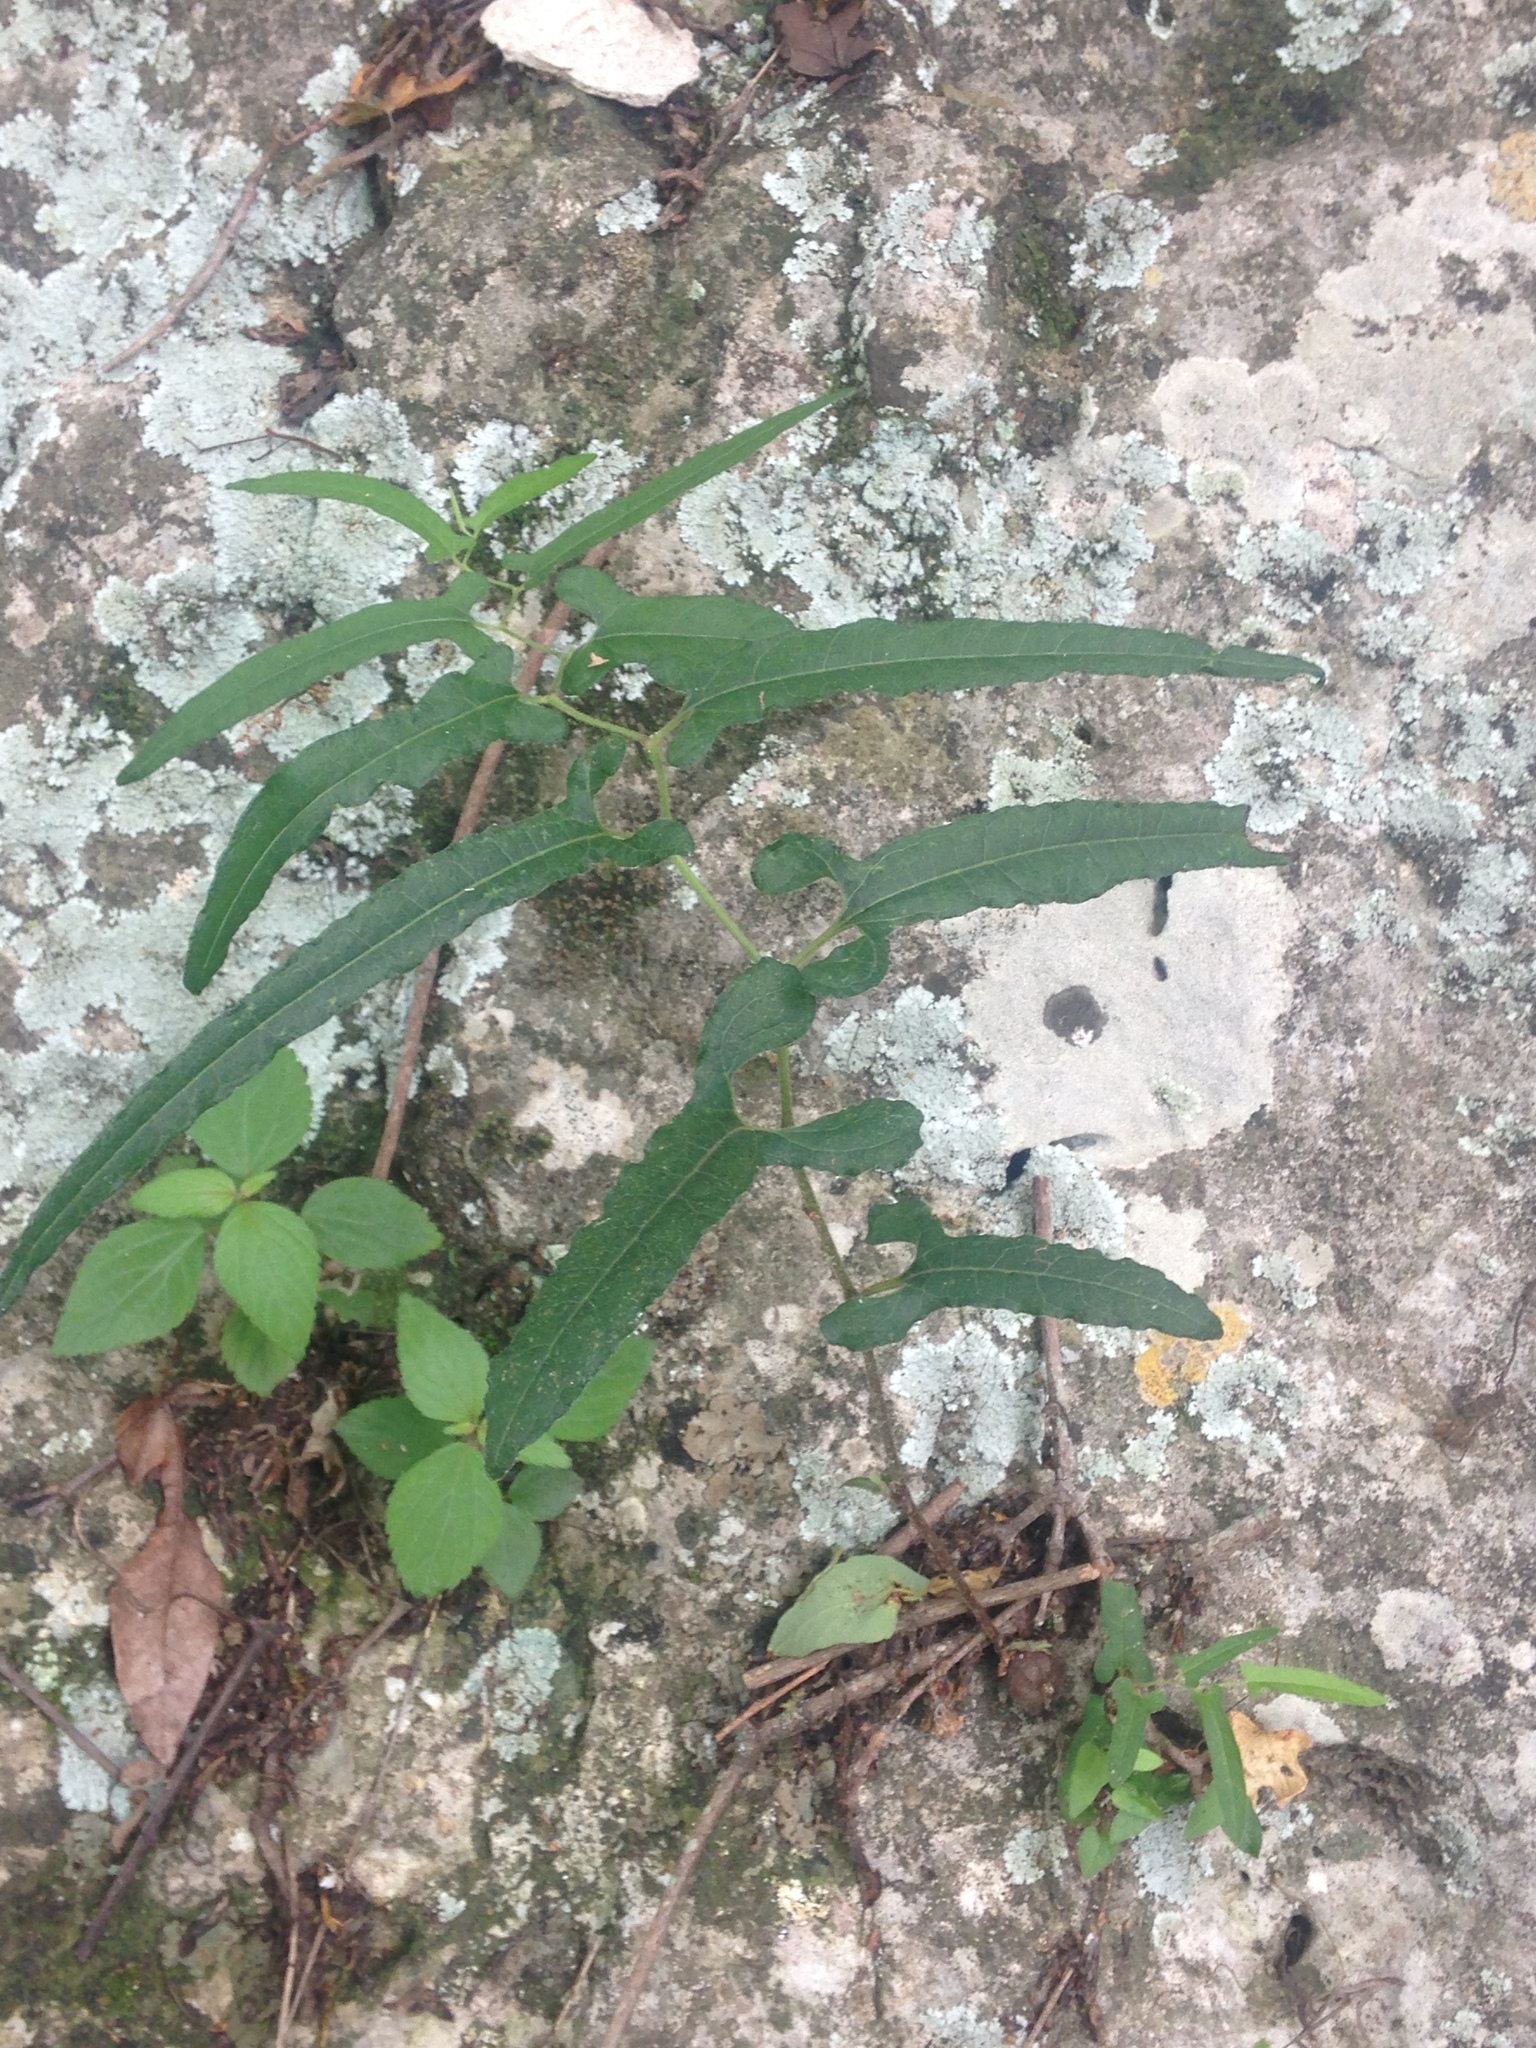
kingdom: Plantae
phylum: Tracheophyta
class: Magnoliopsida
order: Piperales
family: Aristolochiaceae
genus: Endodeca
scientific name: Endodeca serpentaria
